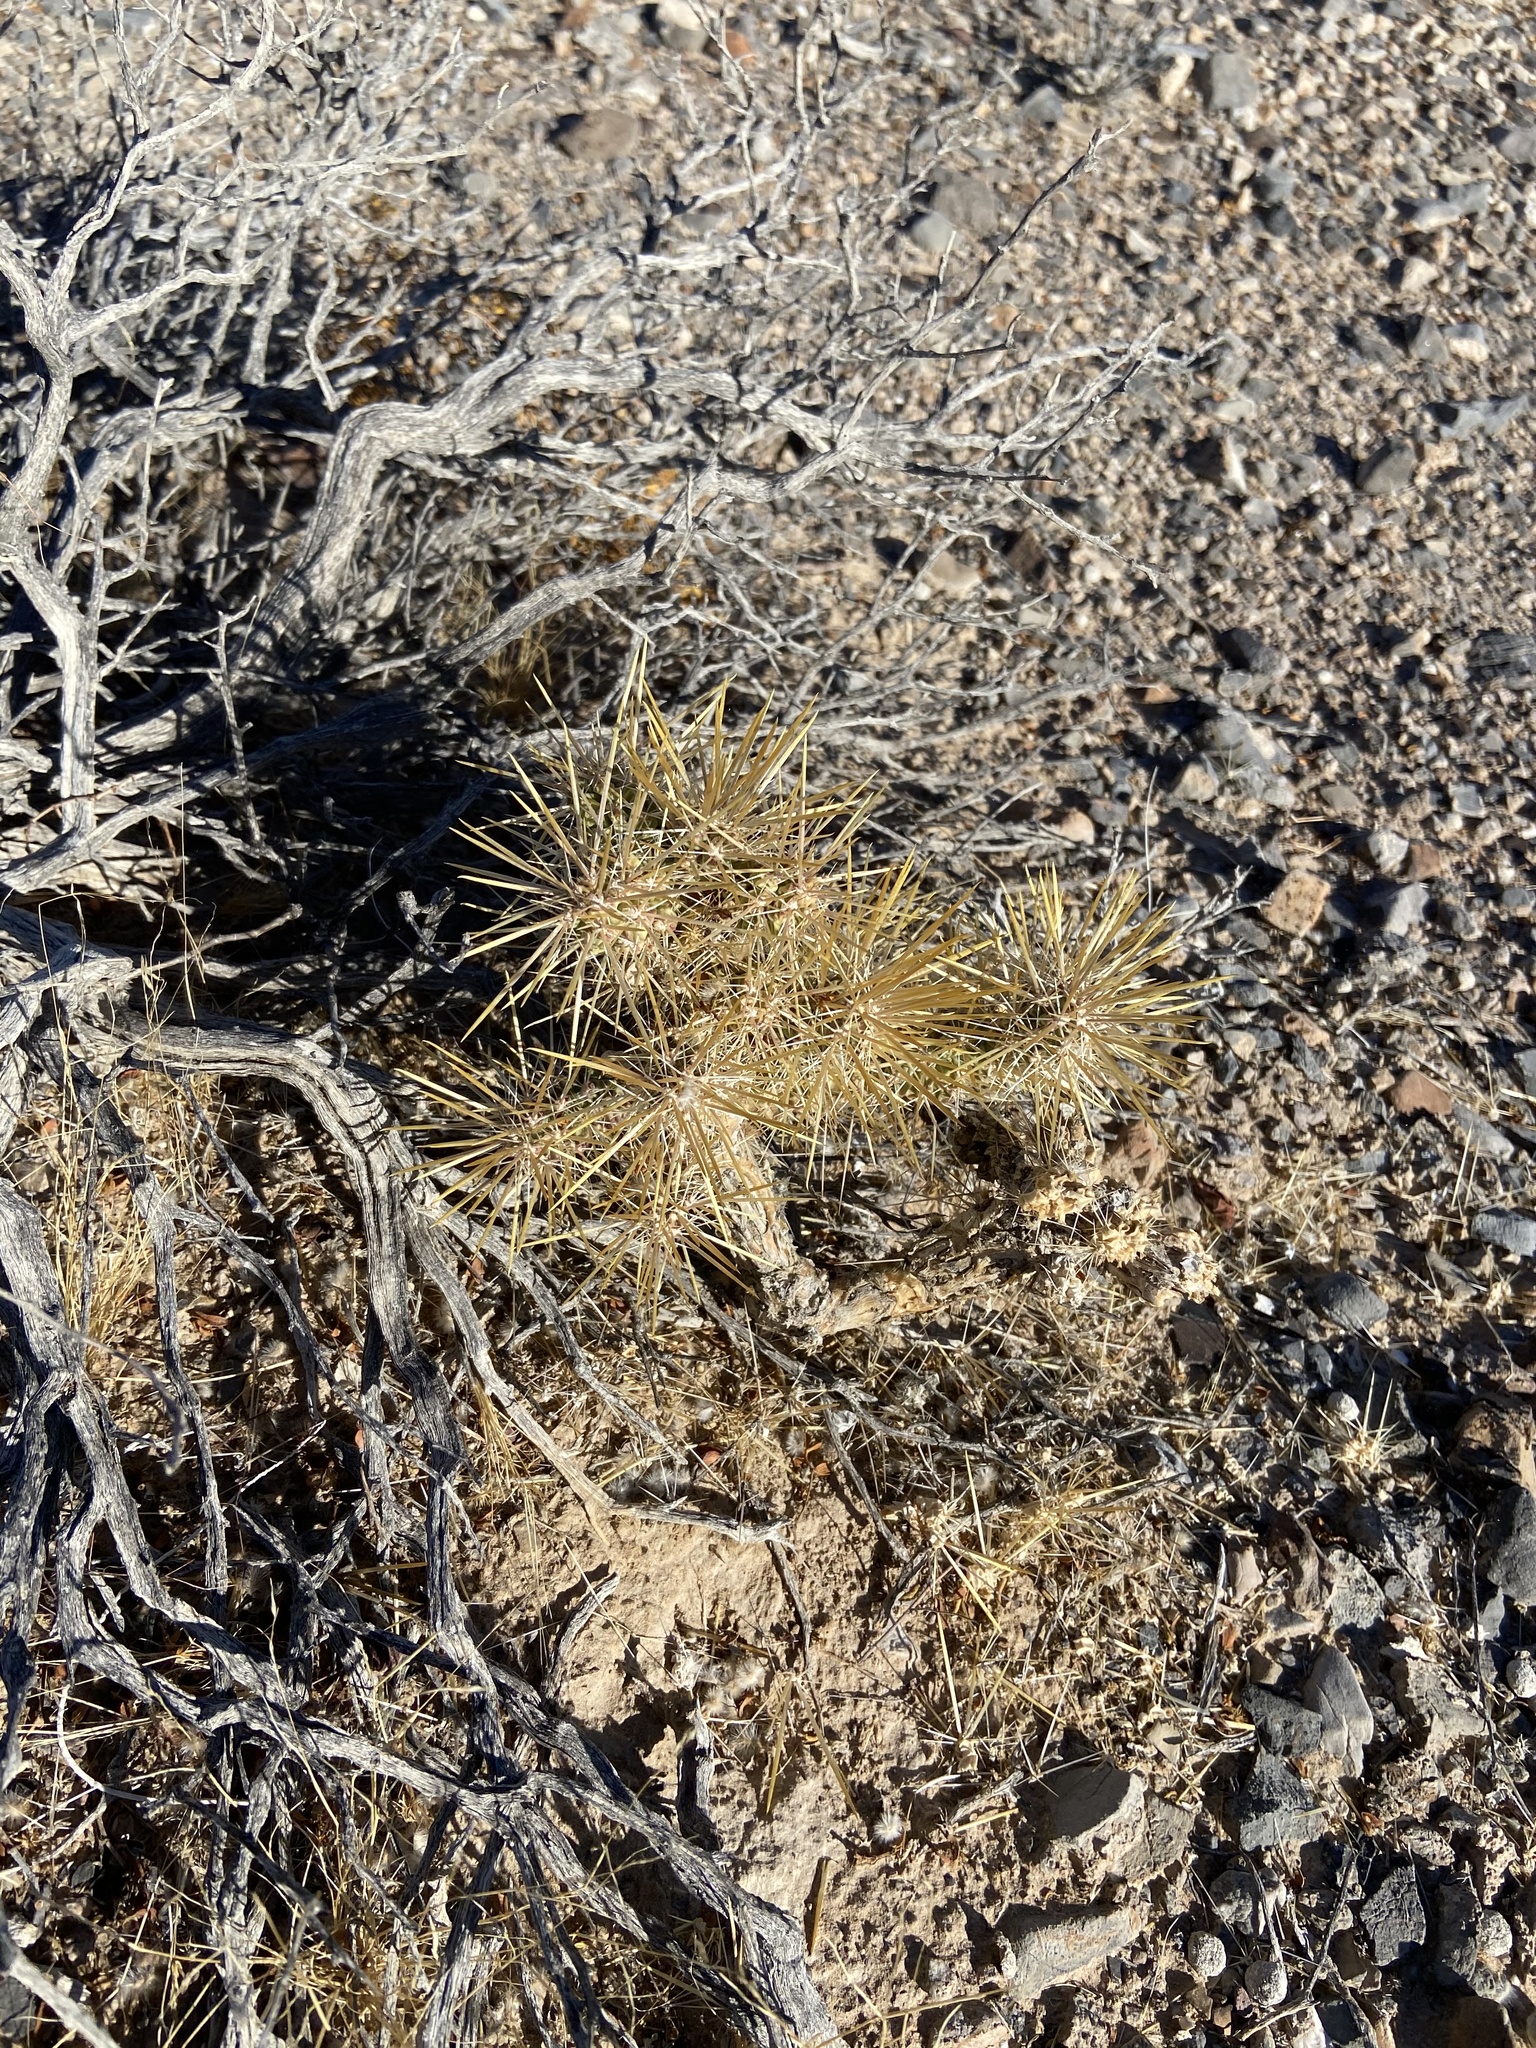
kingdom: Plantae
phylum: Tracheophyta
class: Magnoliopsida
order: Caryophyllales
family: Cactaceae
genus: Cylindropuntia
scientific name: Cylindropuntia echinocarpa
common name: Ground cholla
